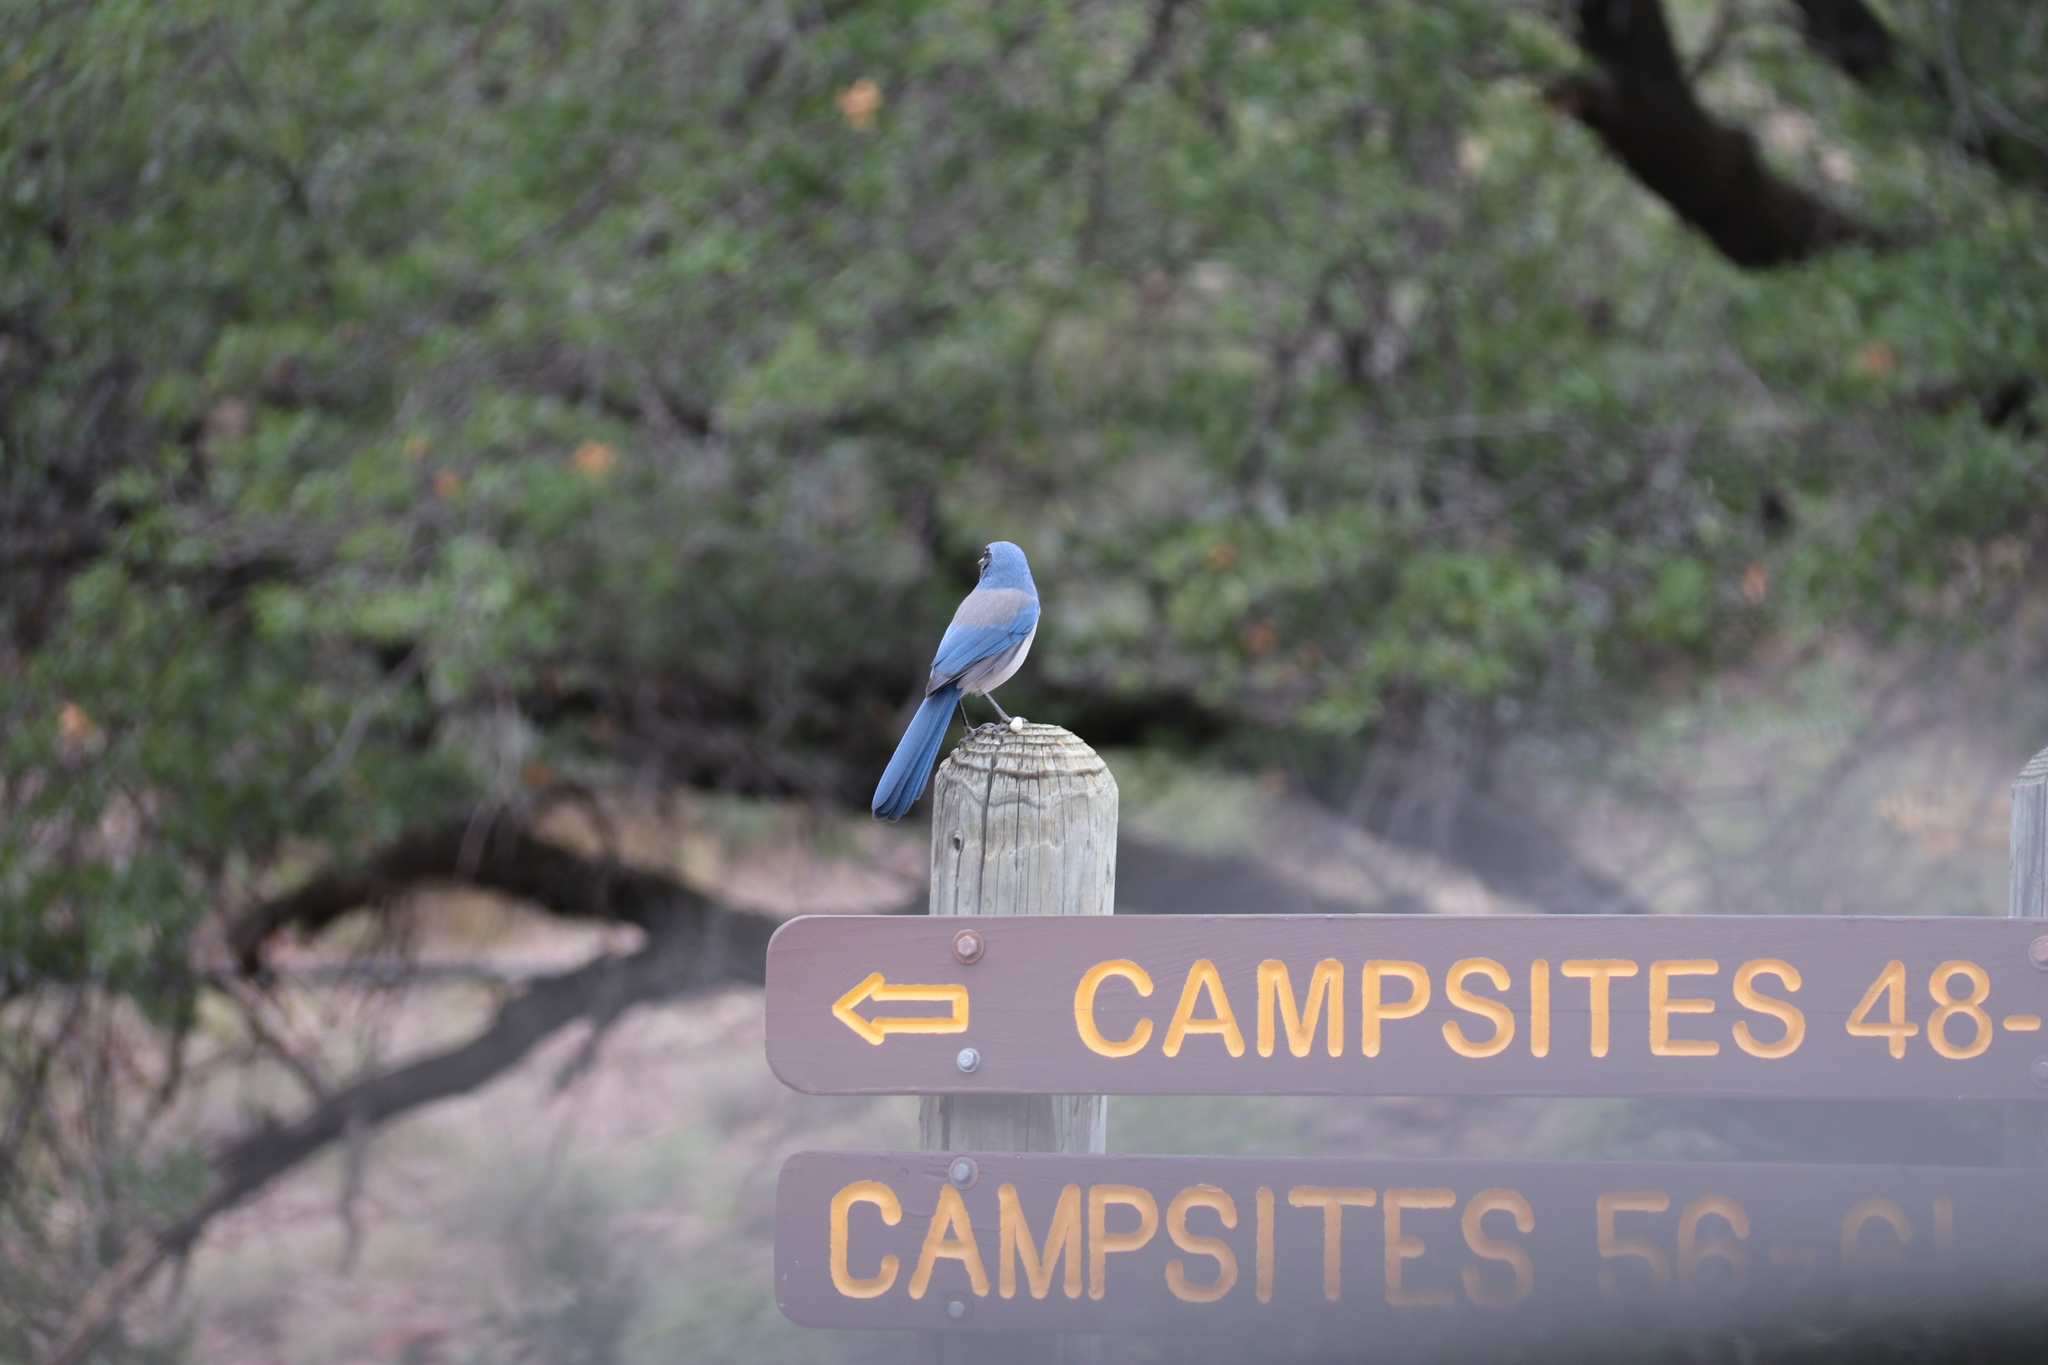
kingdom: Animalia
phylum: Chordata
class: Aves
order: Passeriformes
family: Corvidae
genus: Aphelocoma
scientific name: Aphelocoma woodhouseii
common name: Woodhouse's scrub-jay
